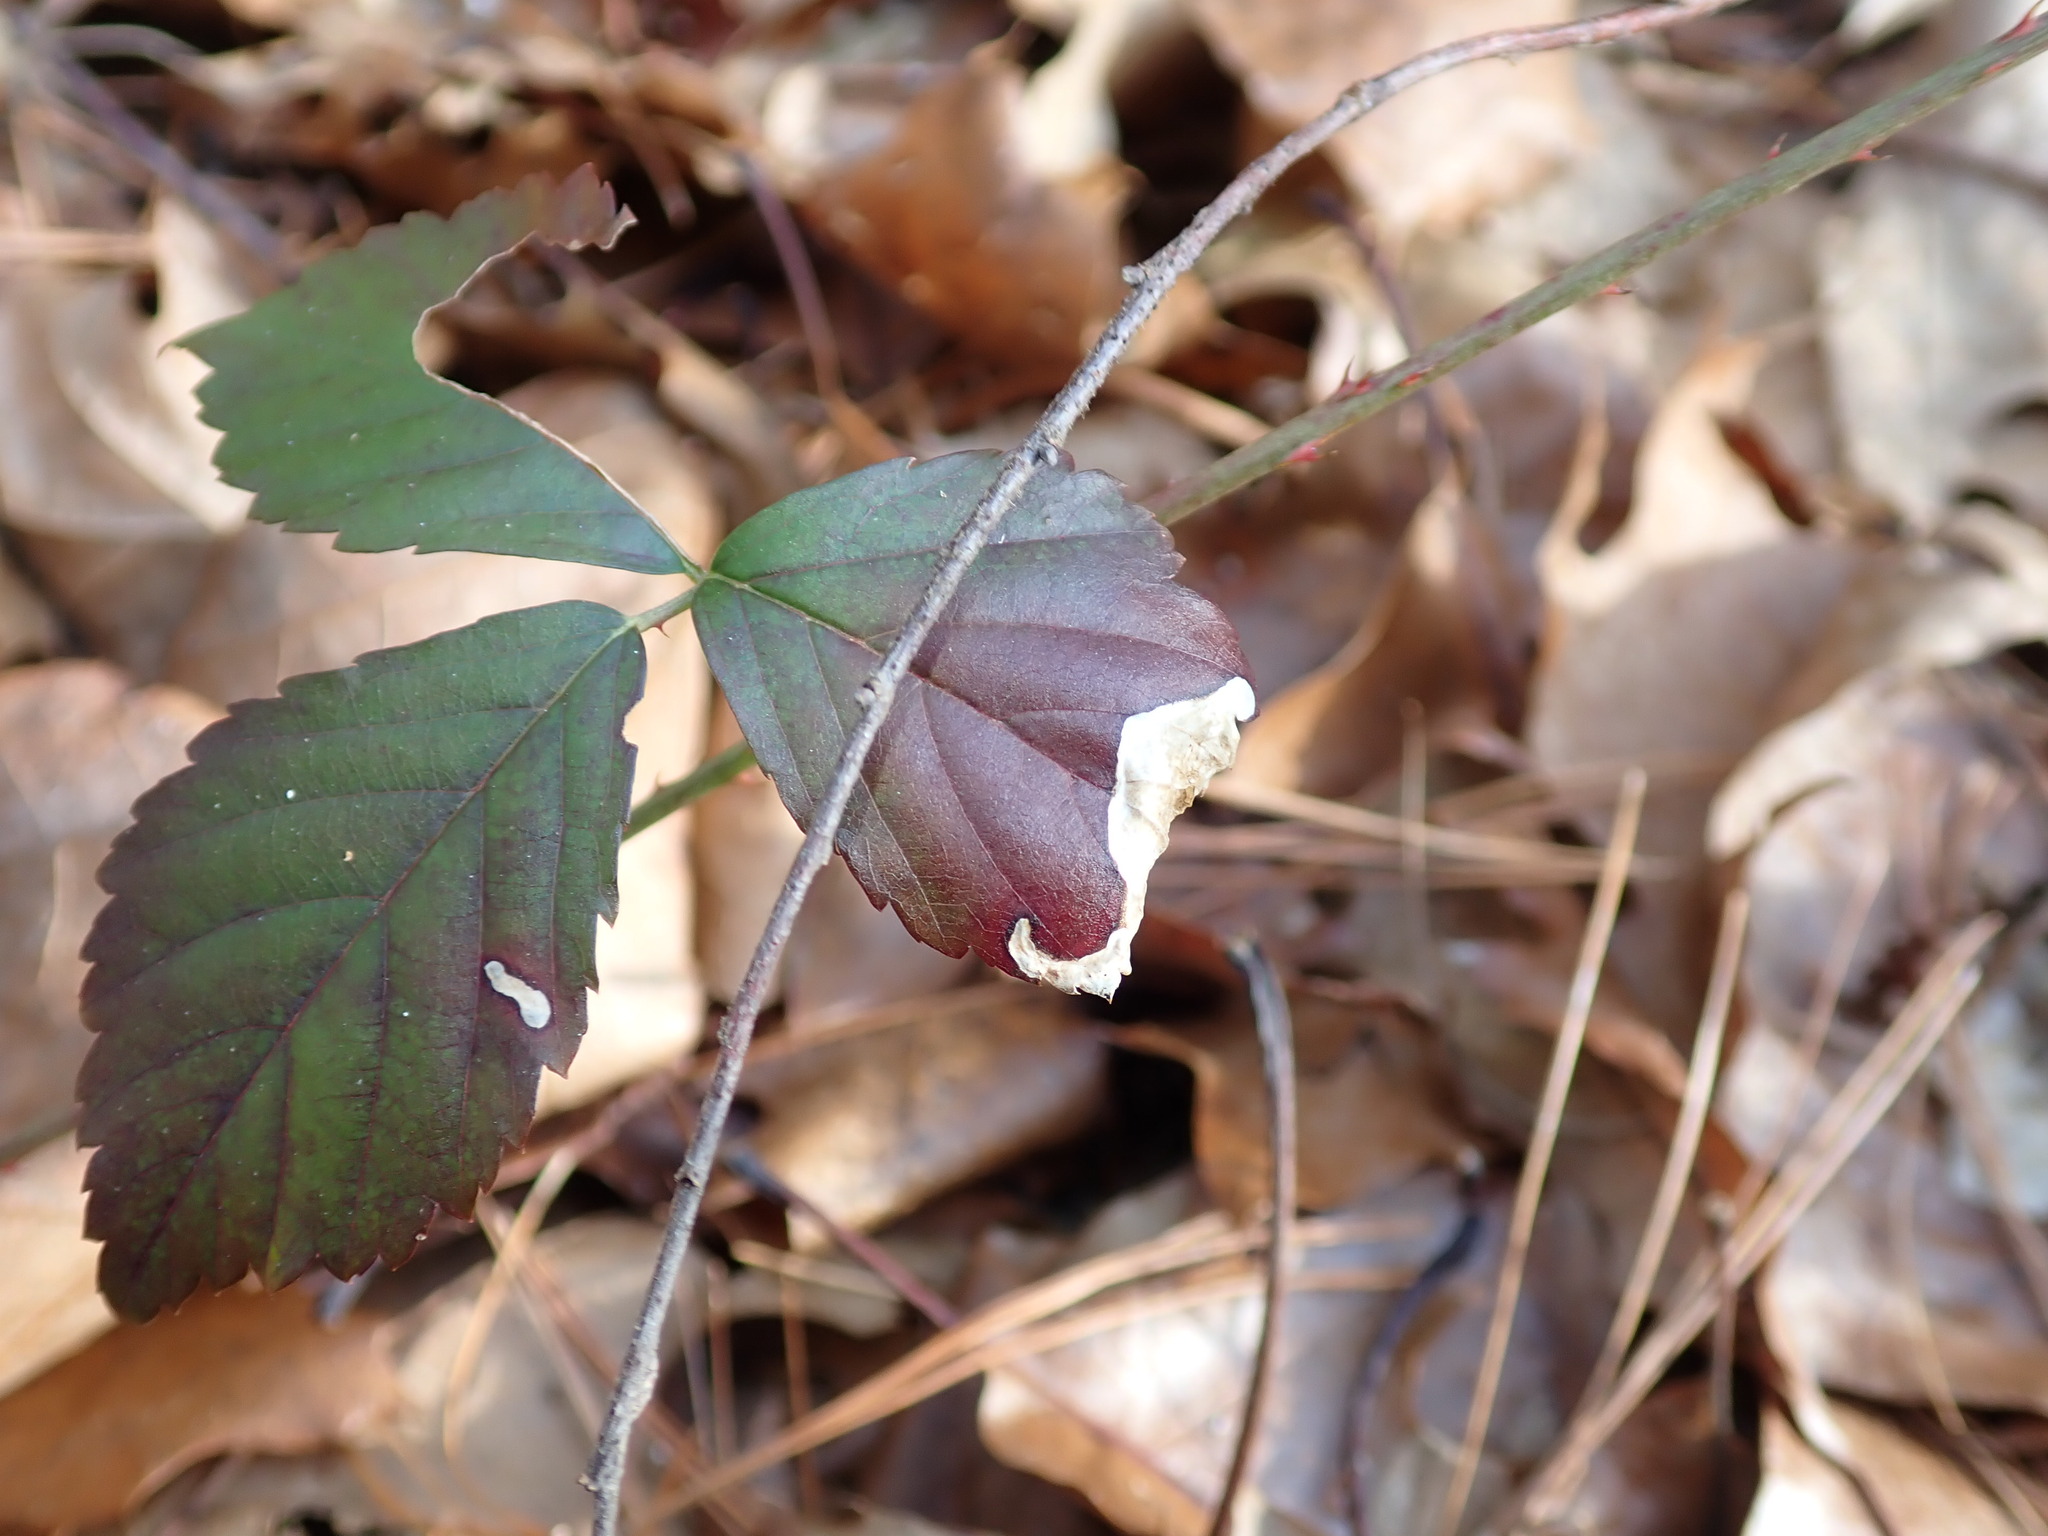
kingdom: Animalia
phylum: Arthropoda
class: Insecta
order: Hymenoptera
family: Tenthredinidae
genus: Metallus
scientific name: Metallus rohweri
